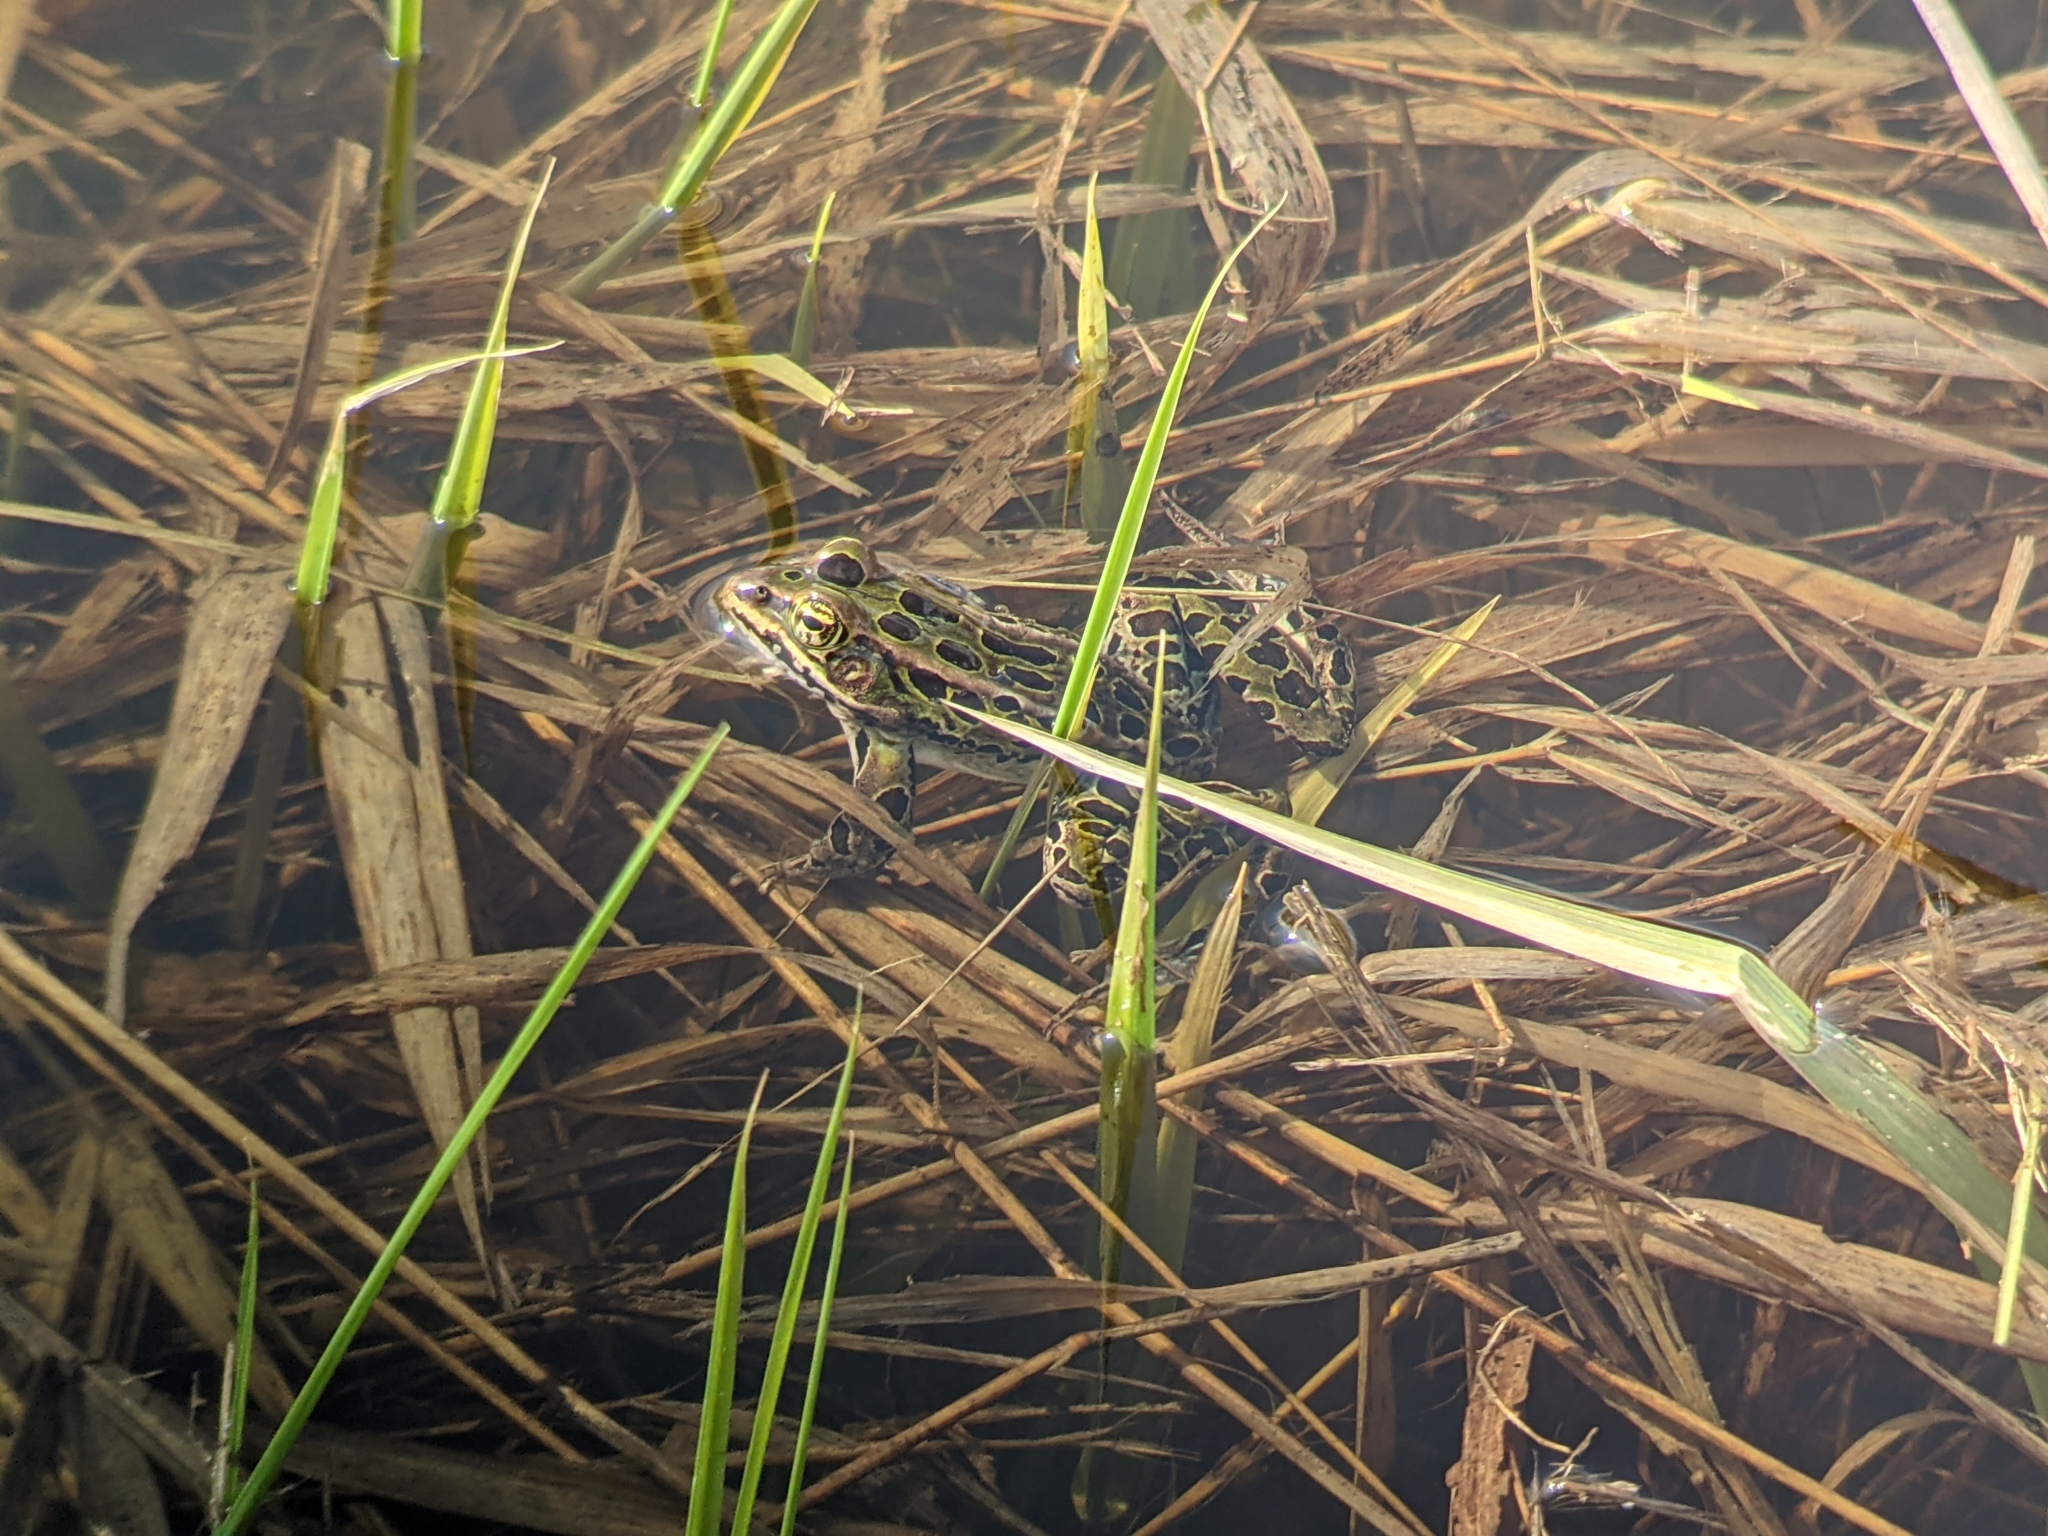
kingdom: Animalia
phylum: Chordata
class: Amphibia
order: Anura
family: Ranidae
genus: Lithobates
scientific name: Lithobates pipiens
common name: Northern leopard frog
